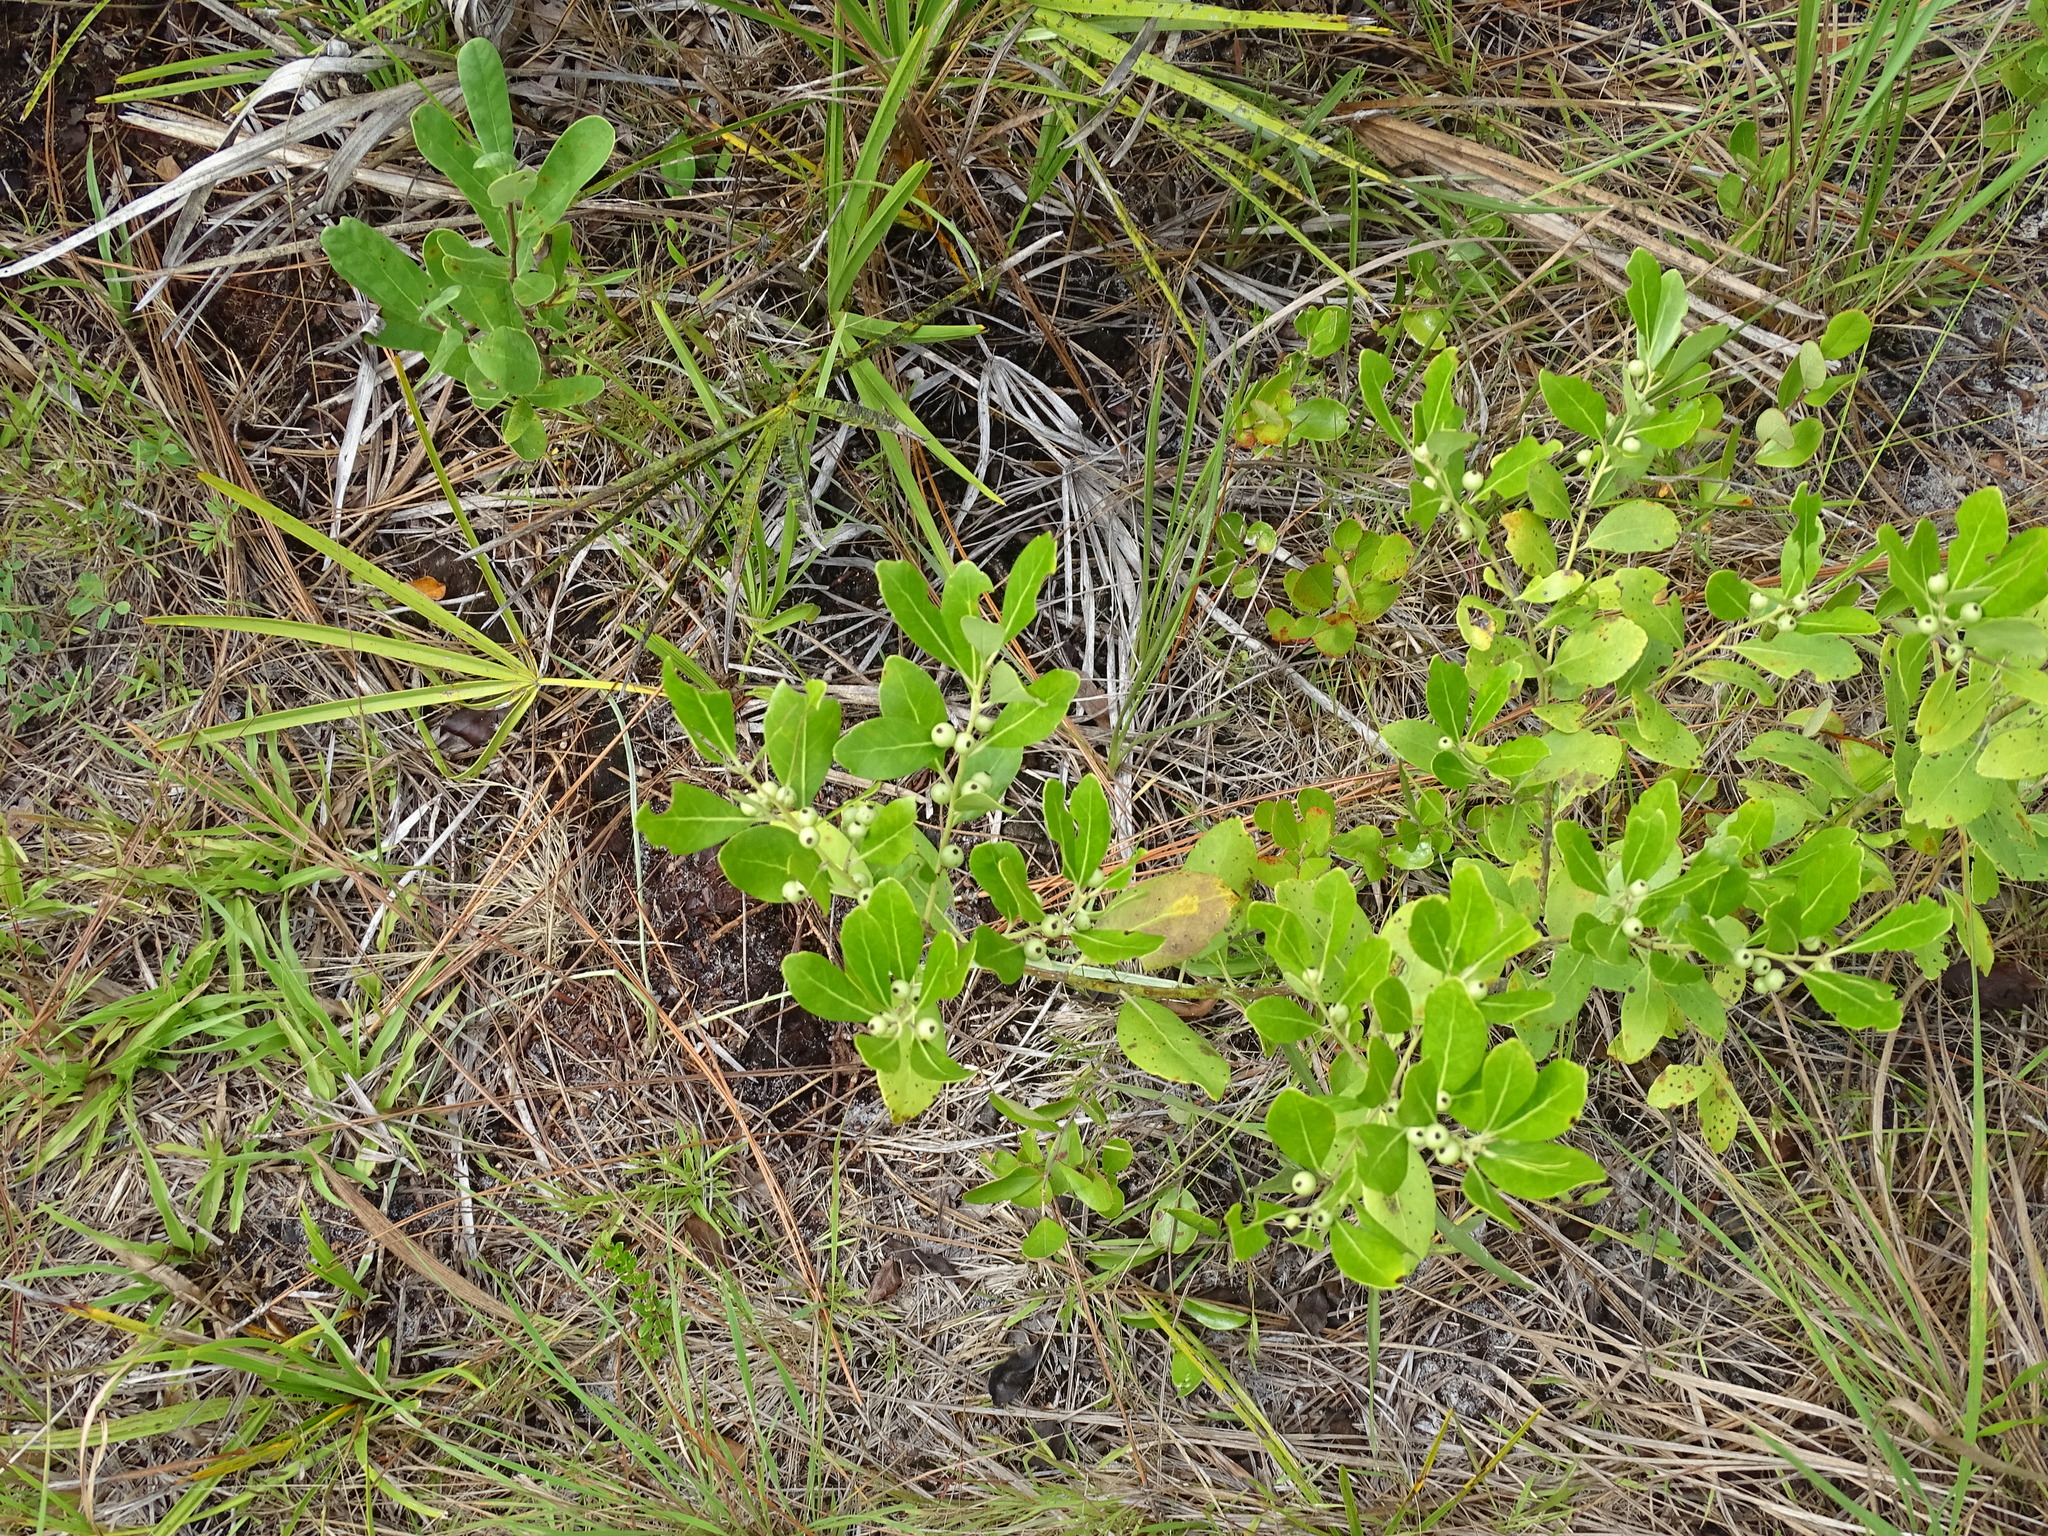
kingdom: Plantae
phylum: Tracheophyta
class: Magnoliopsida
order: Aquifoliales
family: Aquifoliaceae
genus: Ilex
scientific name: Ilex glabra
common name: Bitter gallberry
